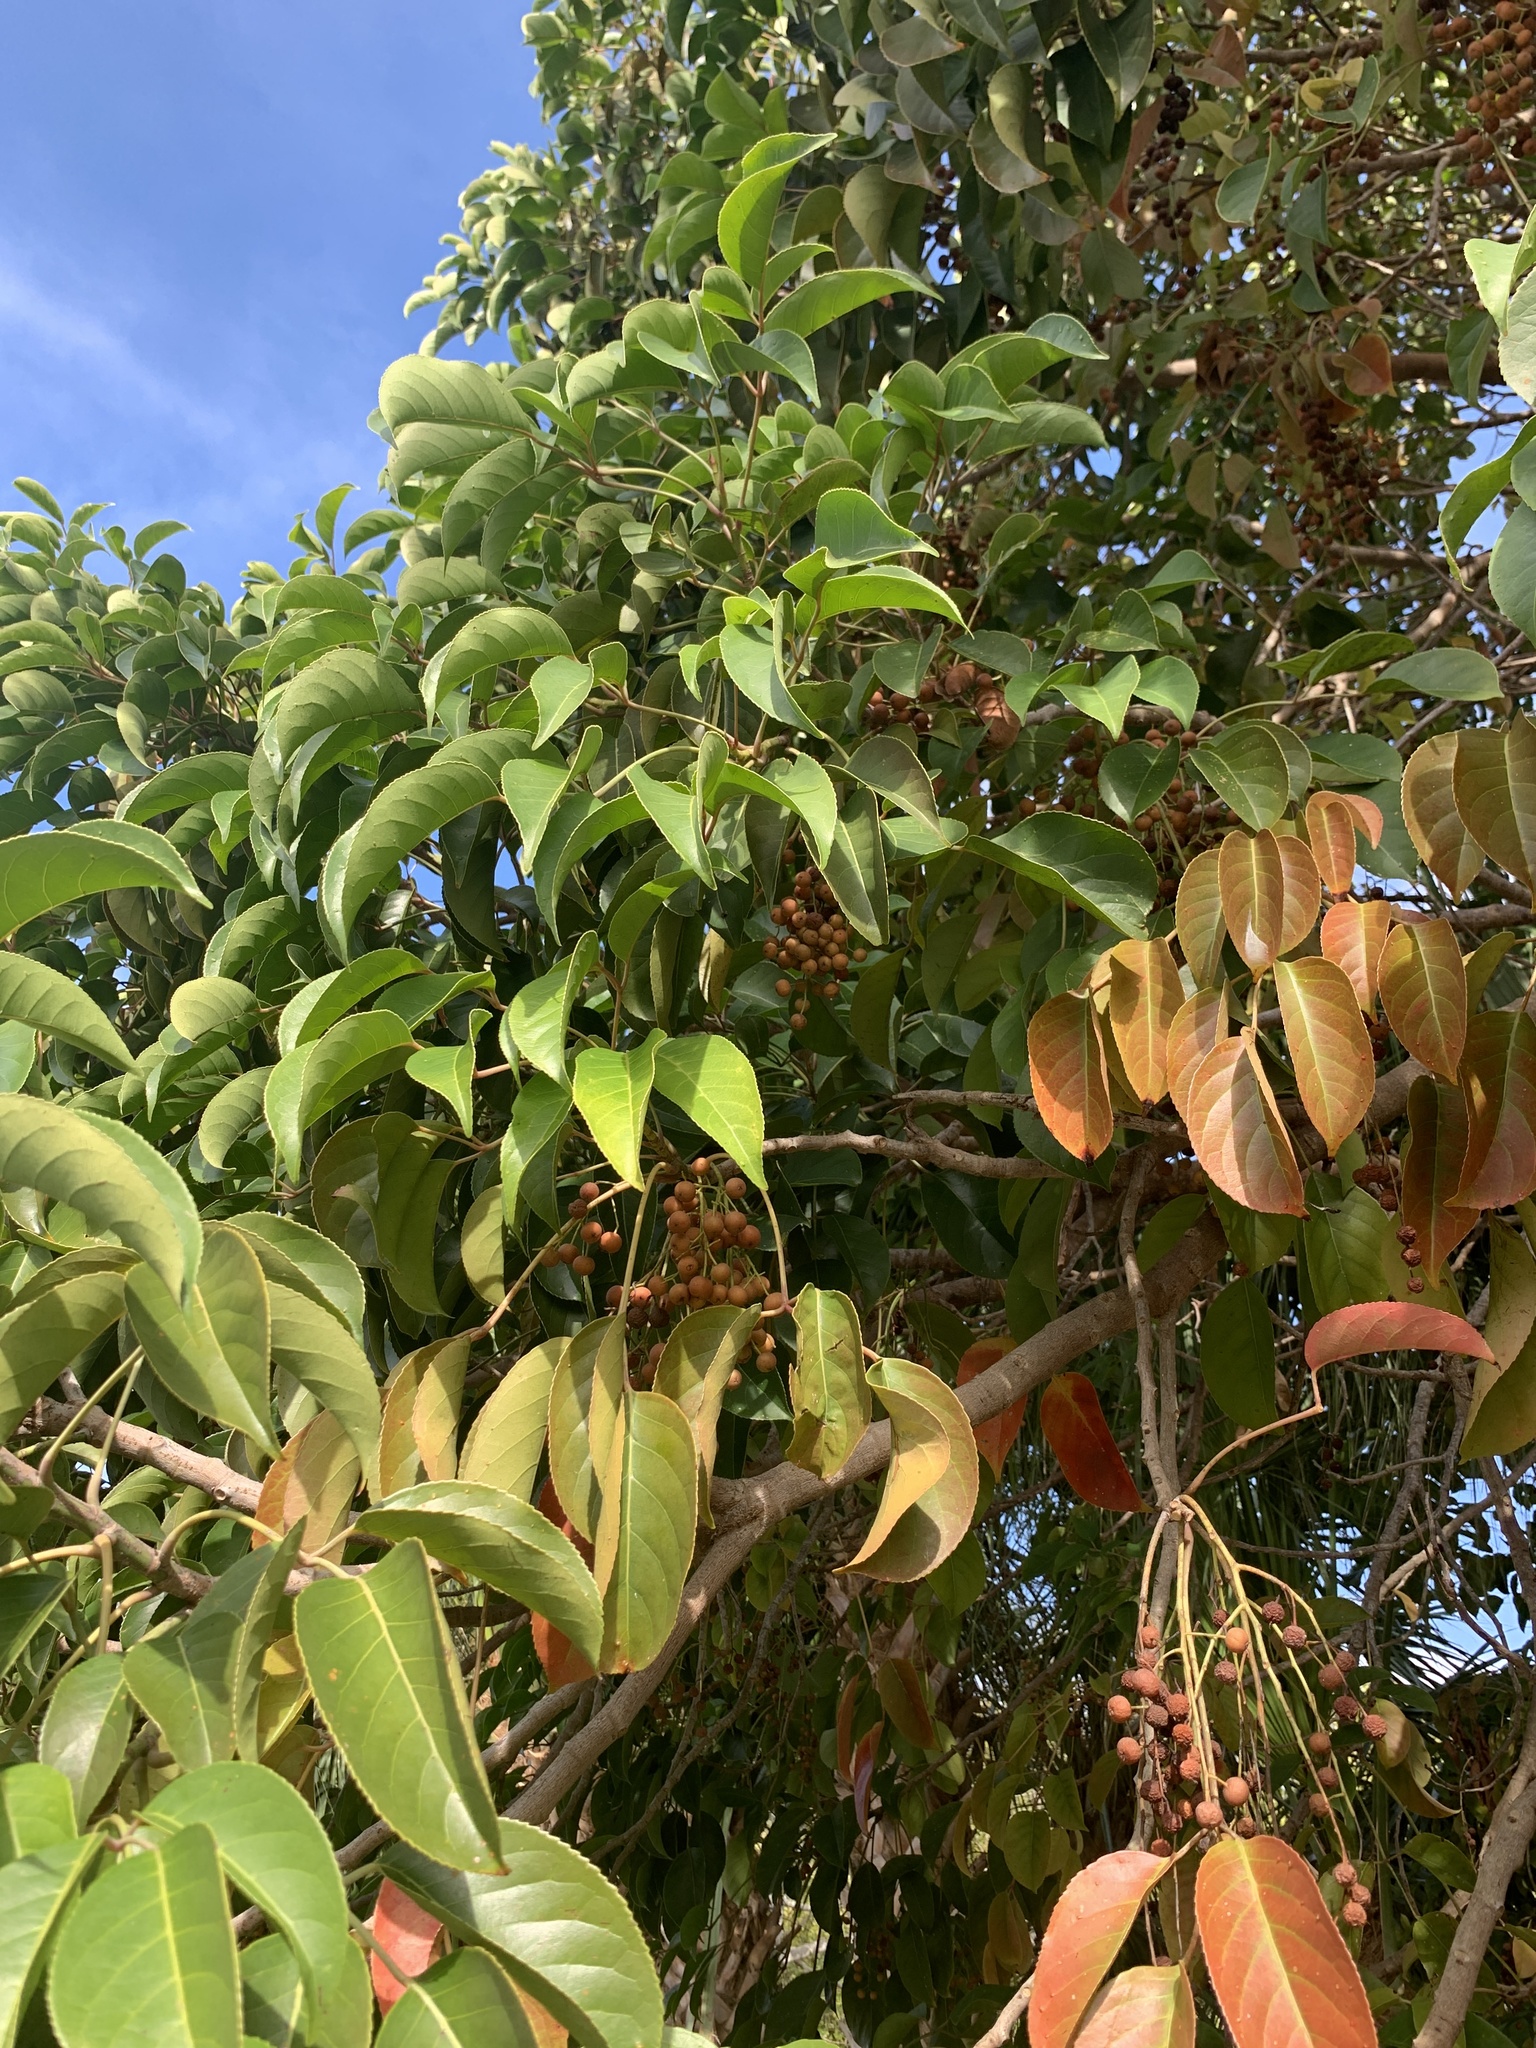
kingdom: Plantae
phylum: Tracheophyta
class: Magnoliopsida
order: Malpighiales
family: Phyllanthaceae
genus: Bischofia
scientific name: Bischofia javanica
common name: Javanese bishopwood
